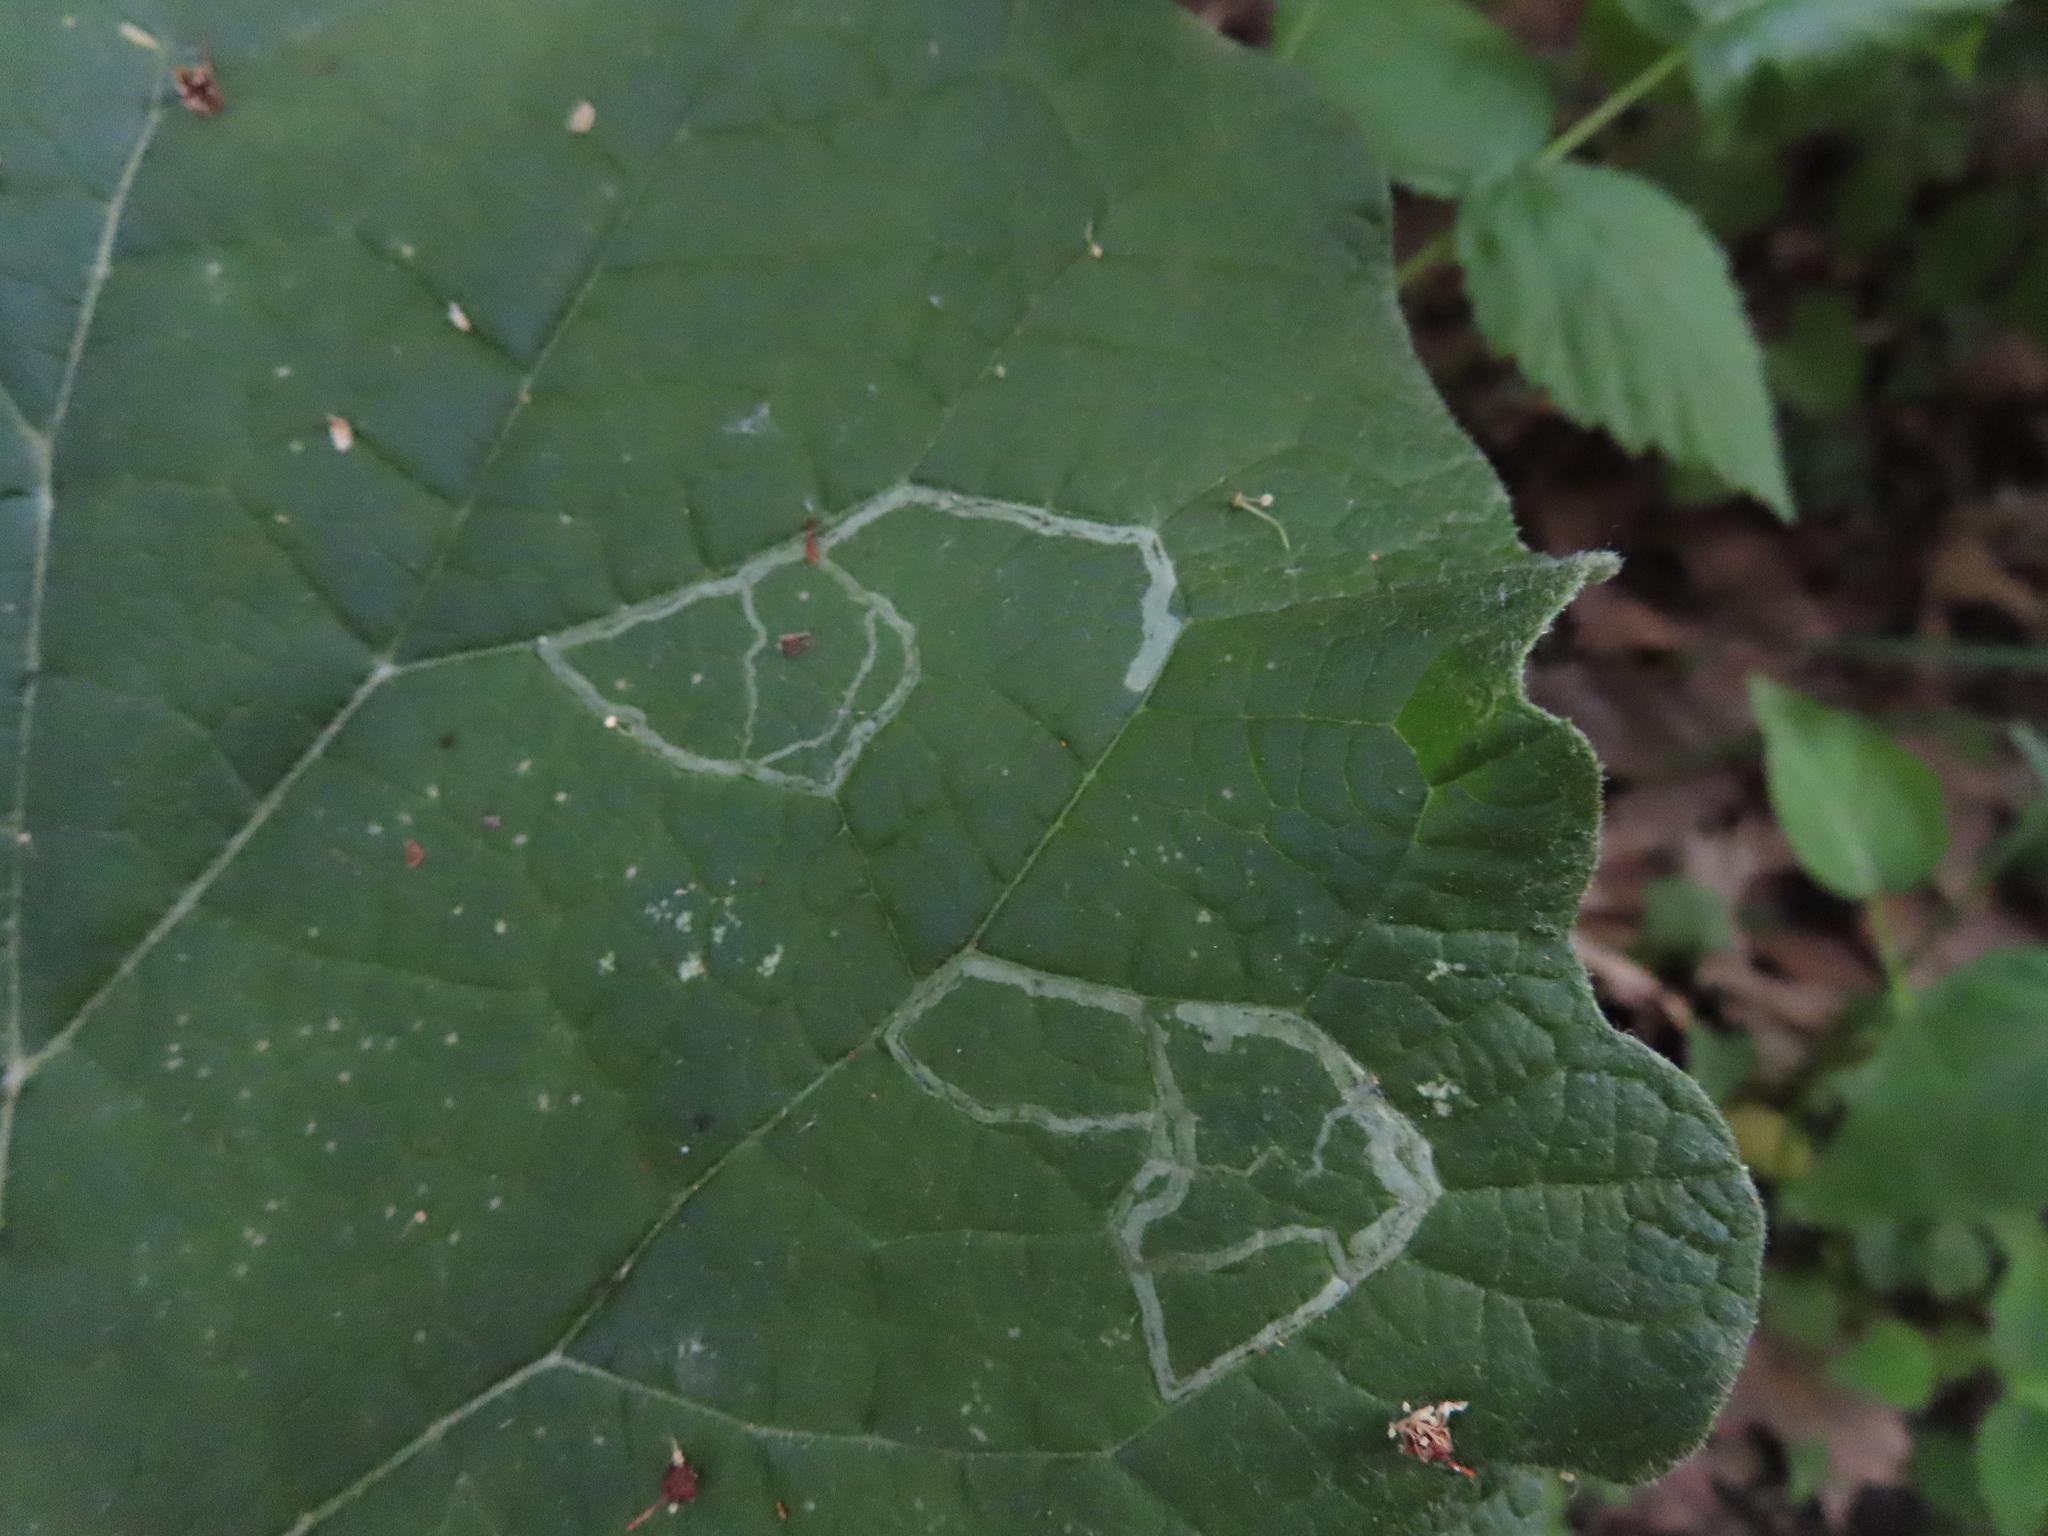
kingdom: Animalia
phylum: Arthropoda
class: Insecta
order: Diptera
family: Agromyzidae
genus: Liriomyza
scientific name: Liriomyza arctii
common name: Burdock leafminer
